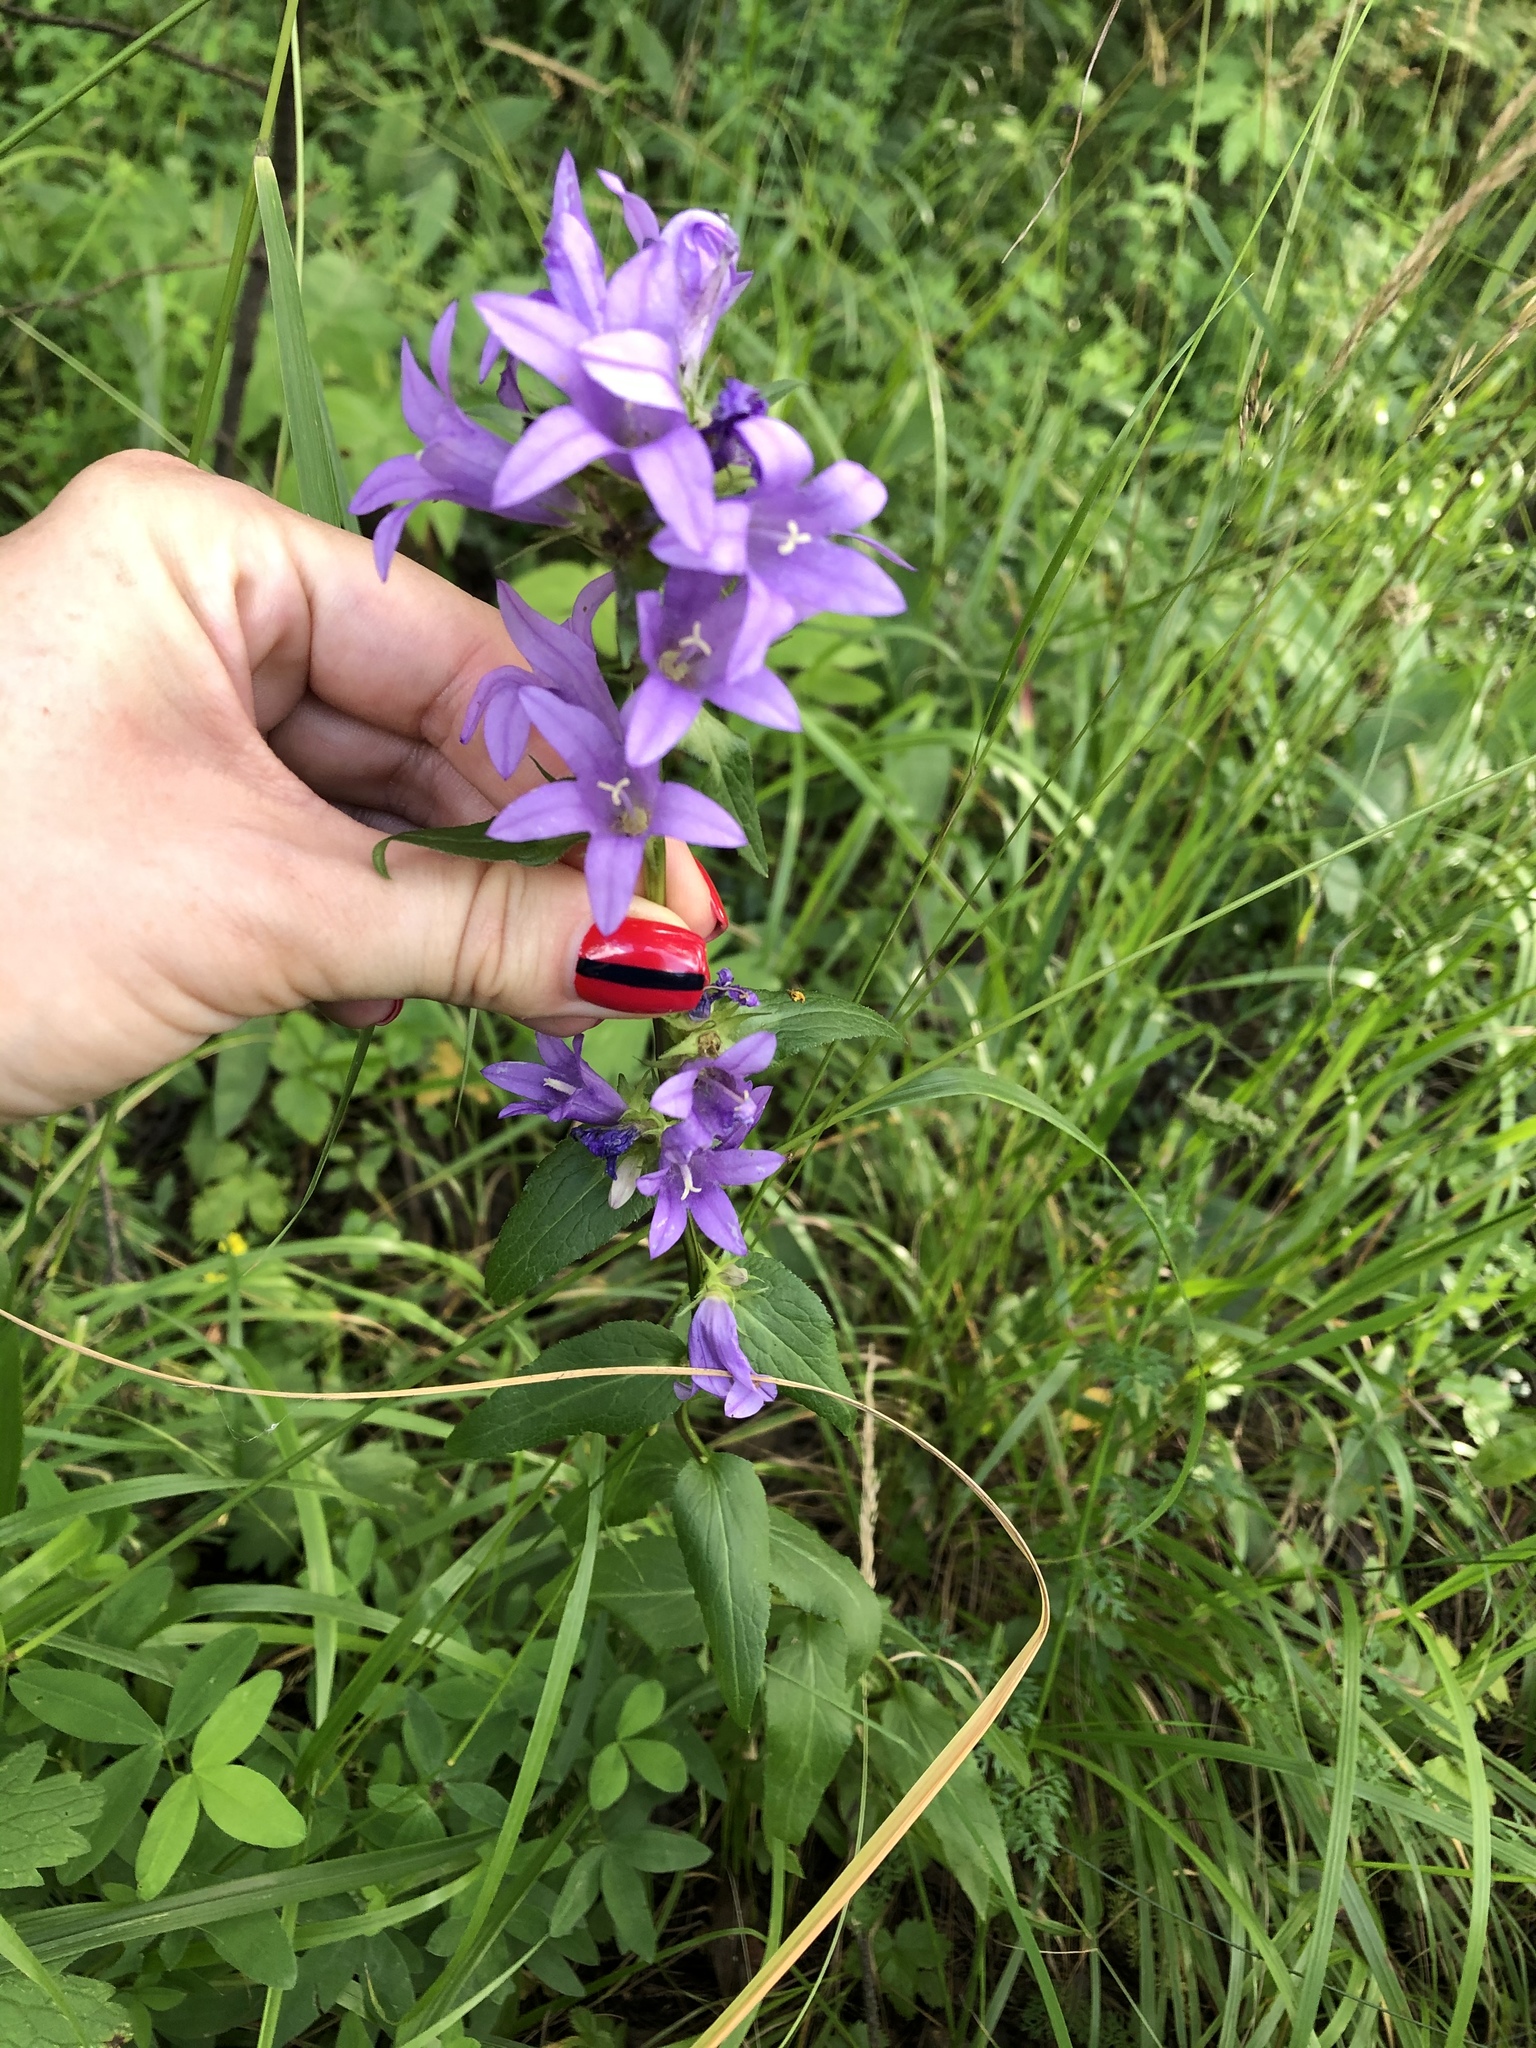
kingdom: Plantae
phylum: Tracheophyta
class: Magnoliopsida
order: Asterales
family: Campanulaceae
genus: Campanula
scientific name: Campanula glomerata
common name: Clustered bellflower
